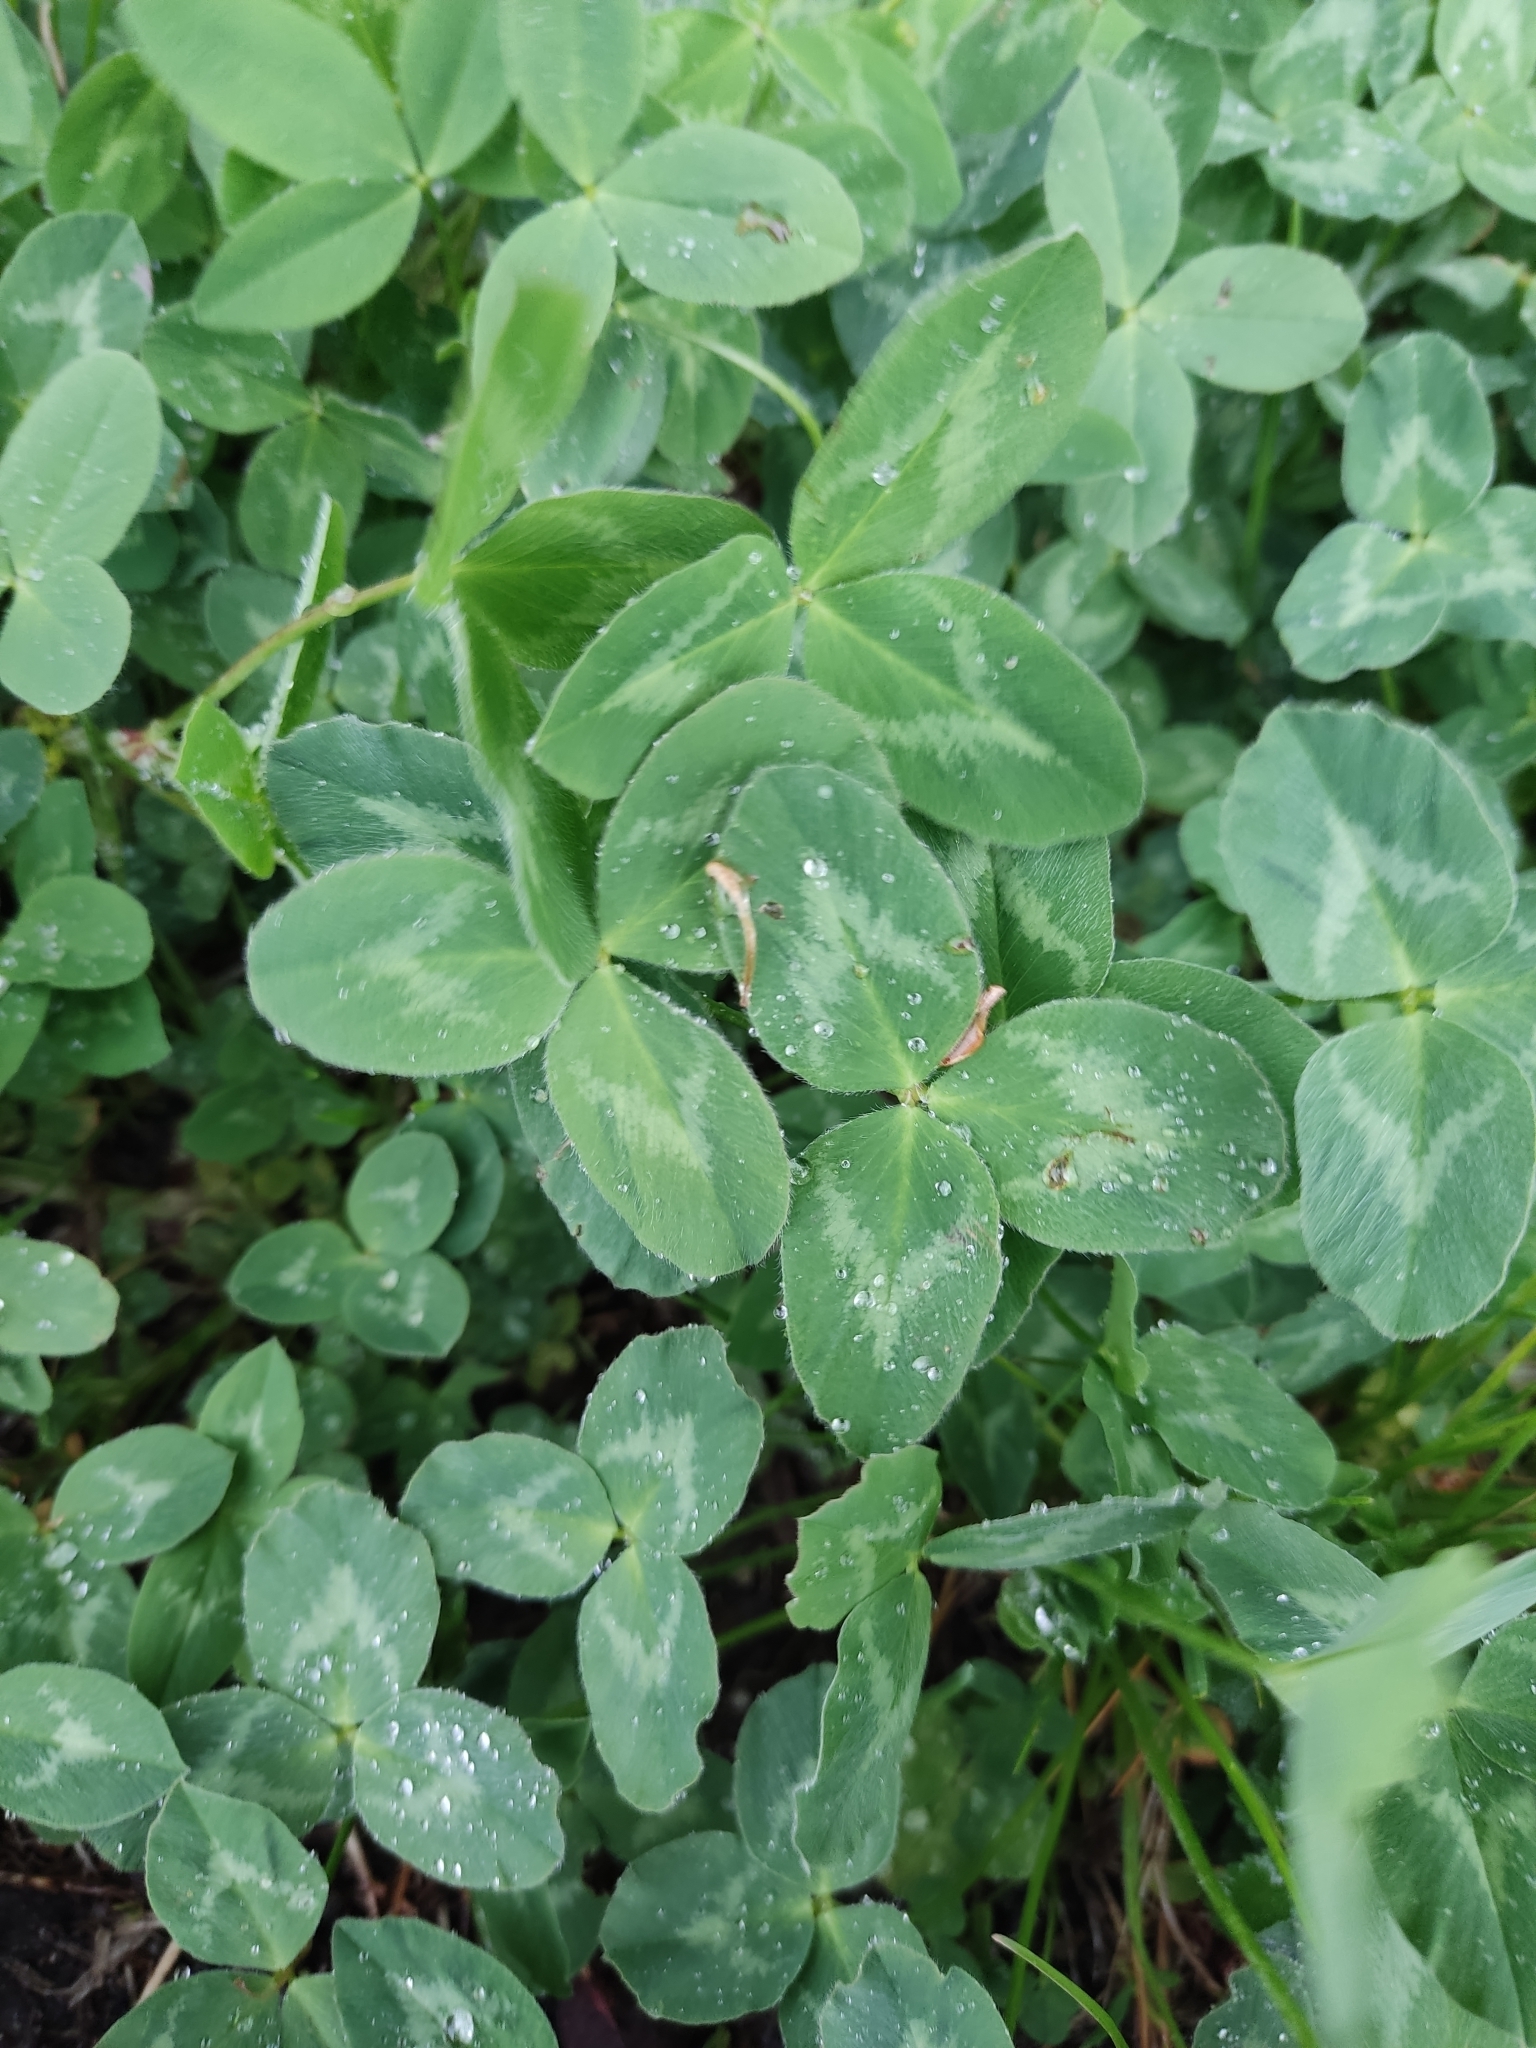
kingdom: Plantae
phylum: Tracheophyta
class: Magnoliopsida
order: Fabales
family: Fabaceae
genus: Trifolium
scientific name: Trifolium pratense
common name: Red clover
